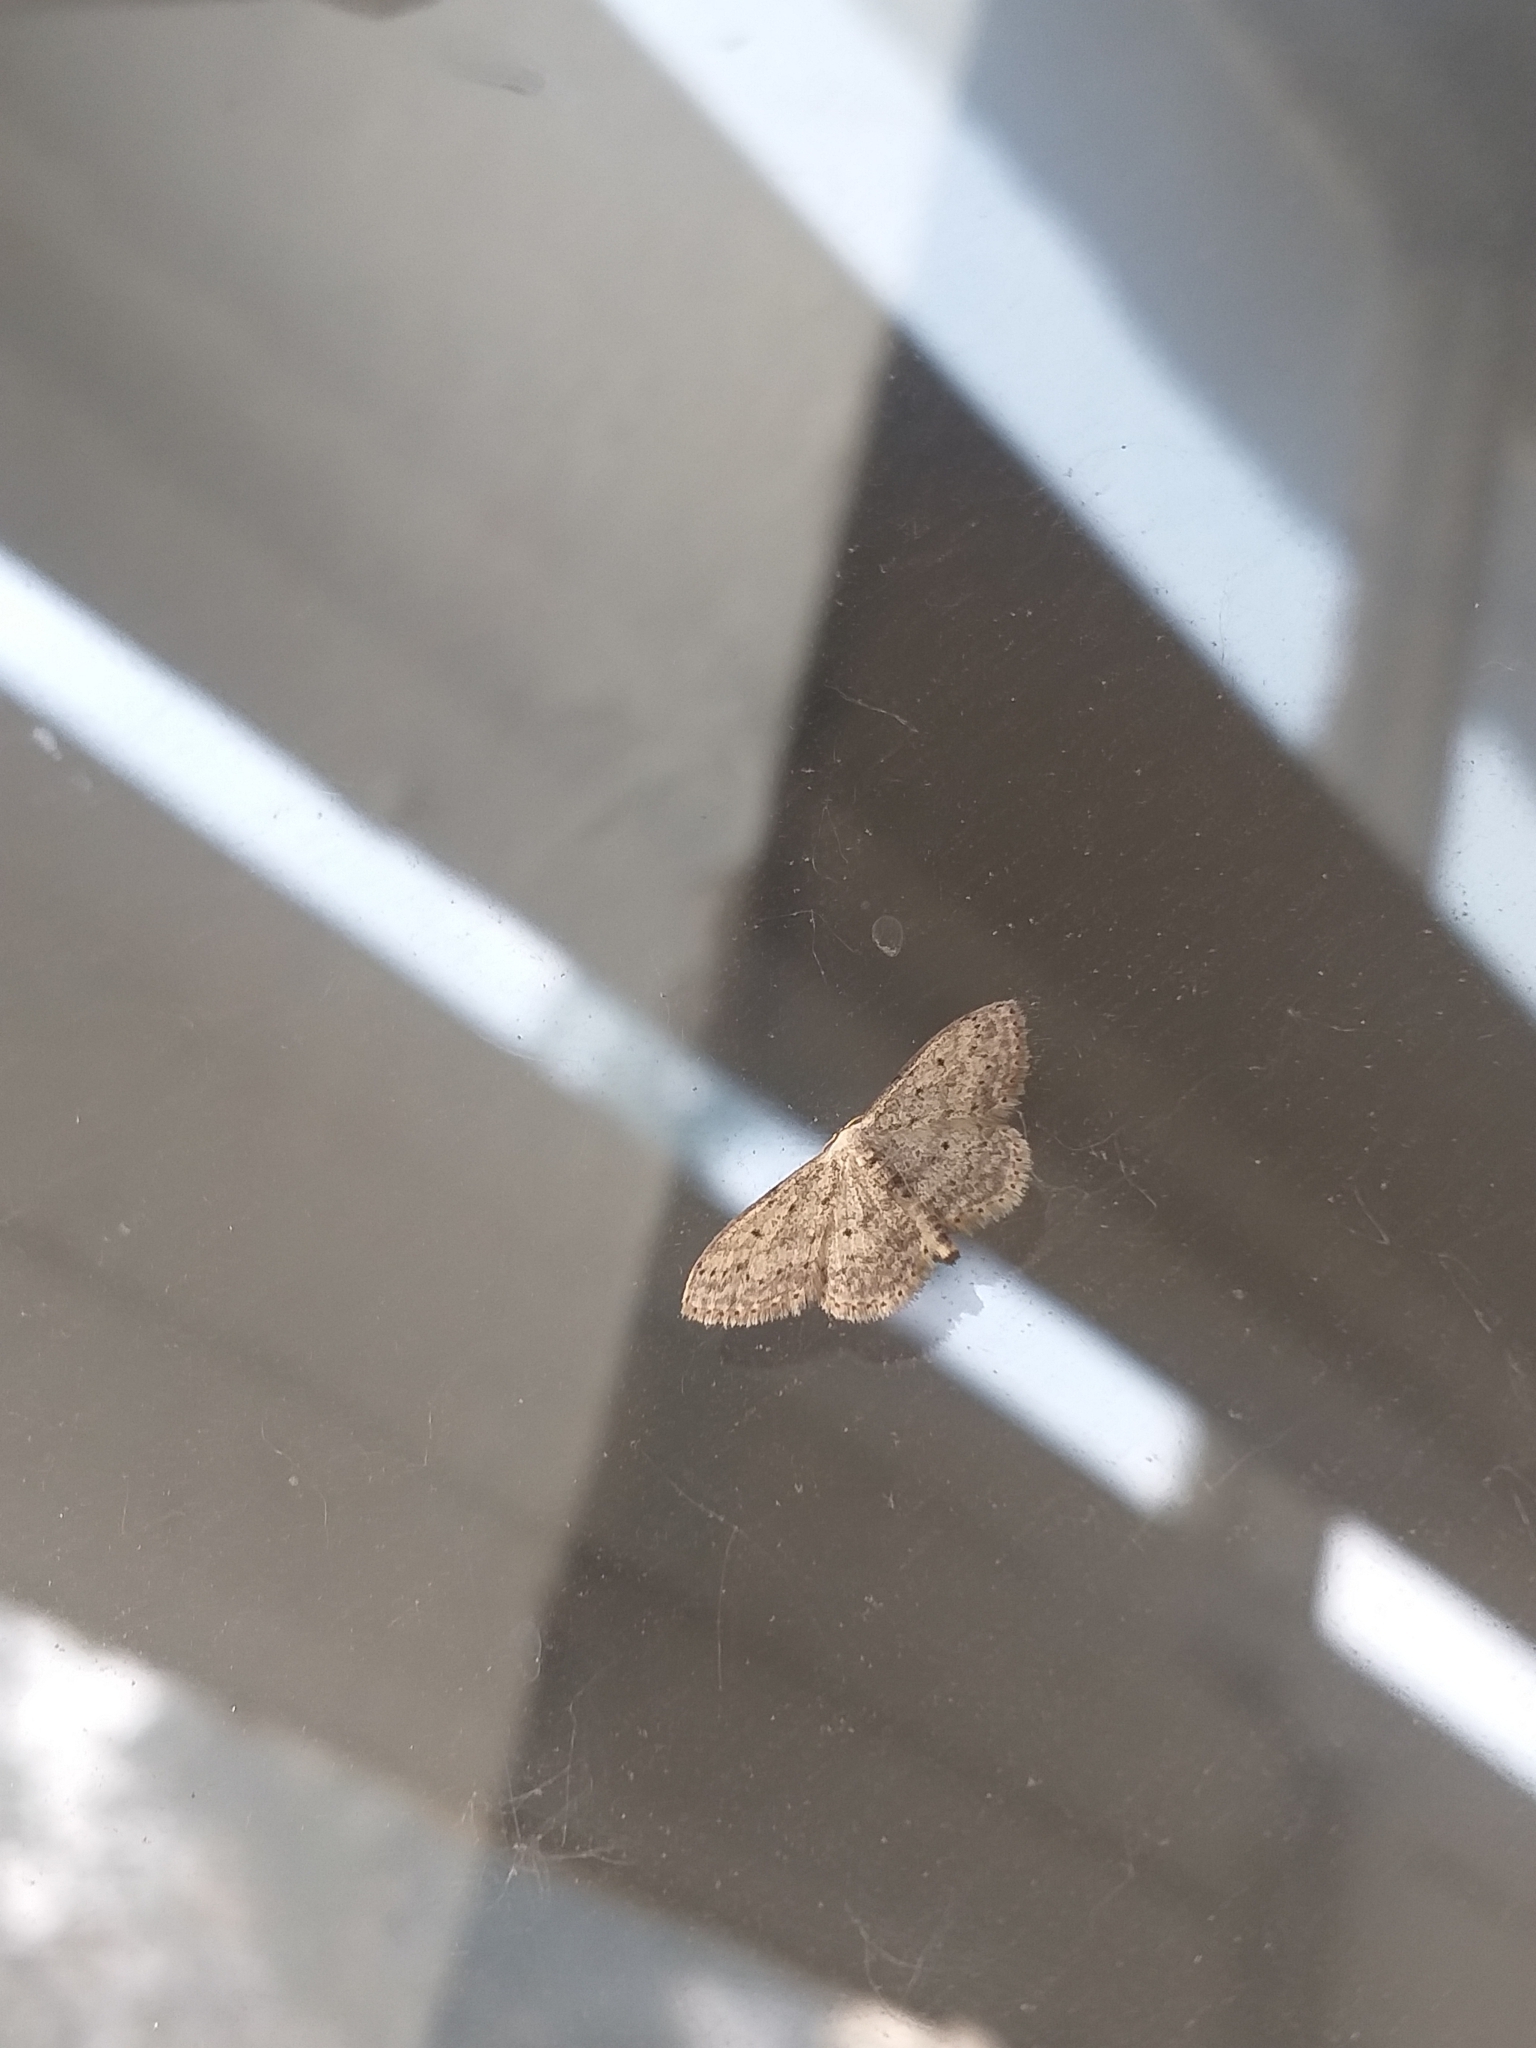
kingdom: Animalia
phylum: Arthropoda
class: Insecta
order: Lepidoptera
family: Geometridae
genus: Idaea
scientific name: Idaea seriata
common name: Small dusty wave
